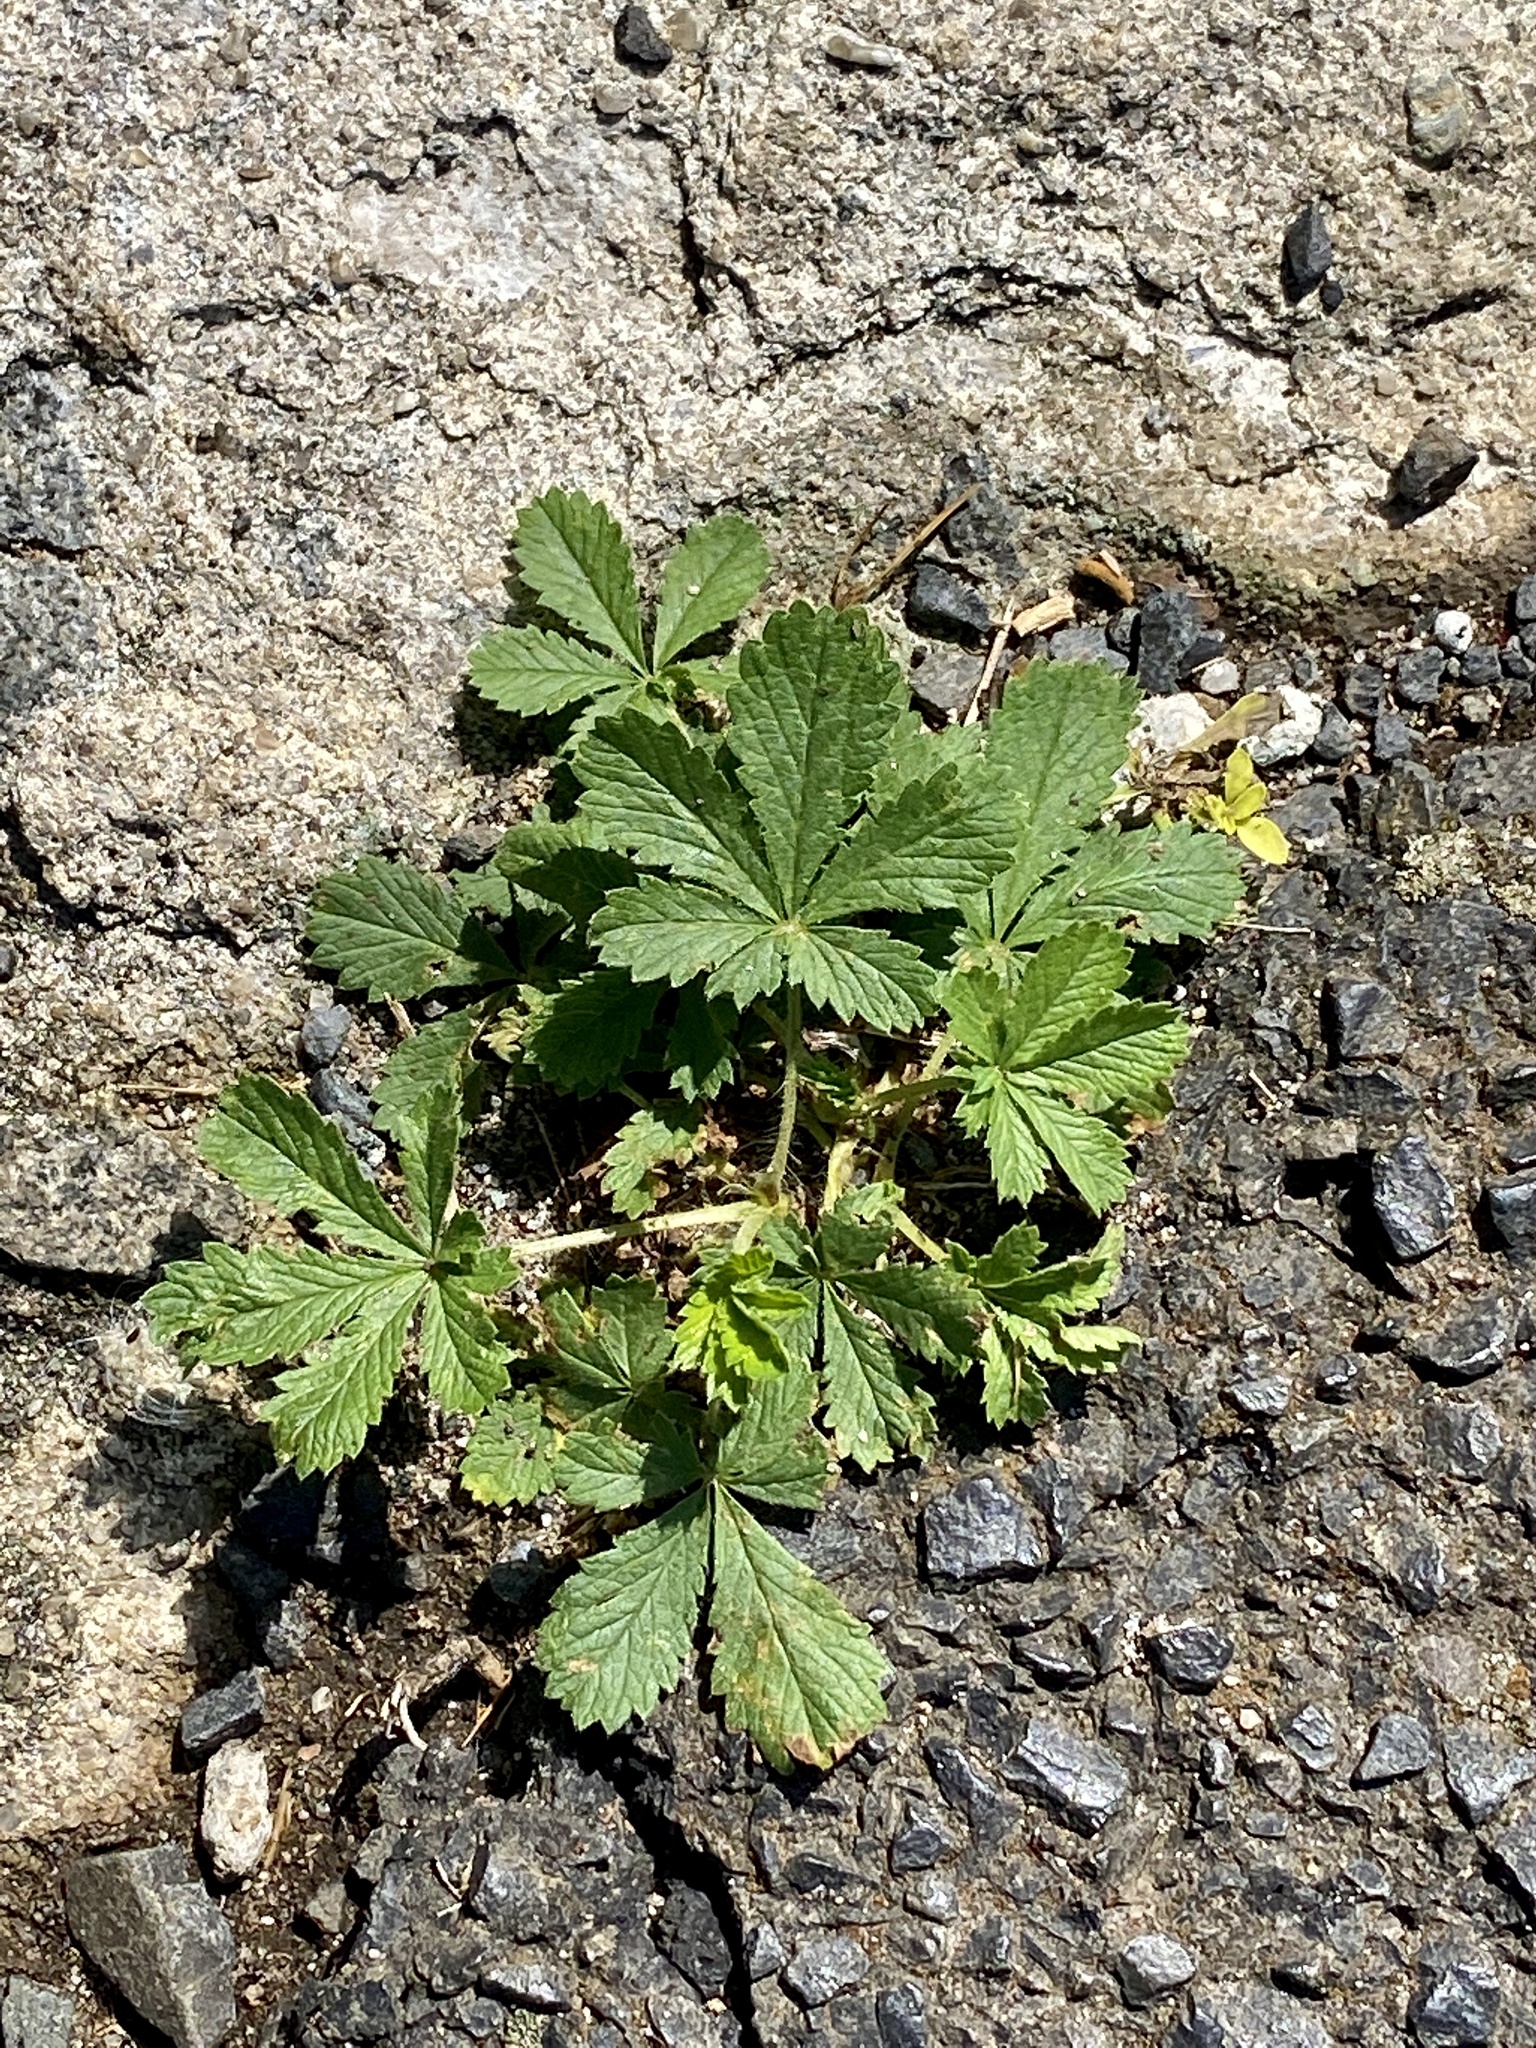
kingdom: Plantae
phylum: Tracheophyta
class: Magnoliopsida
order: Rosales
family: Rosaceae
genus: Potentilla
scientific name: Potentilla recta
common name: Sulphur cinquefoil
